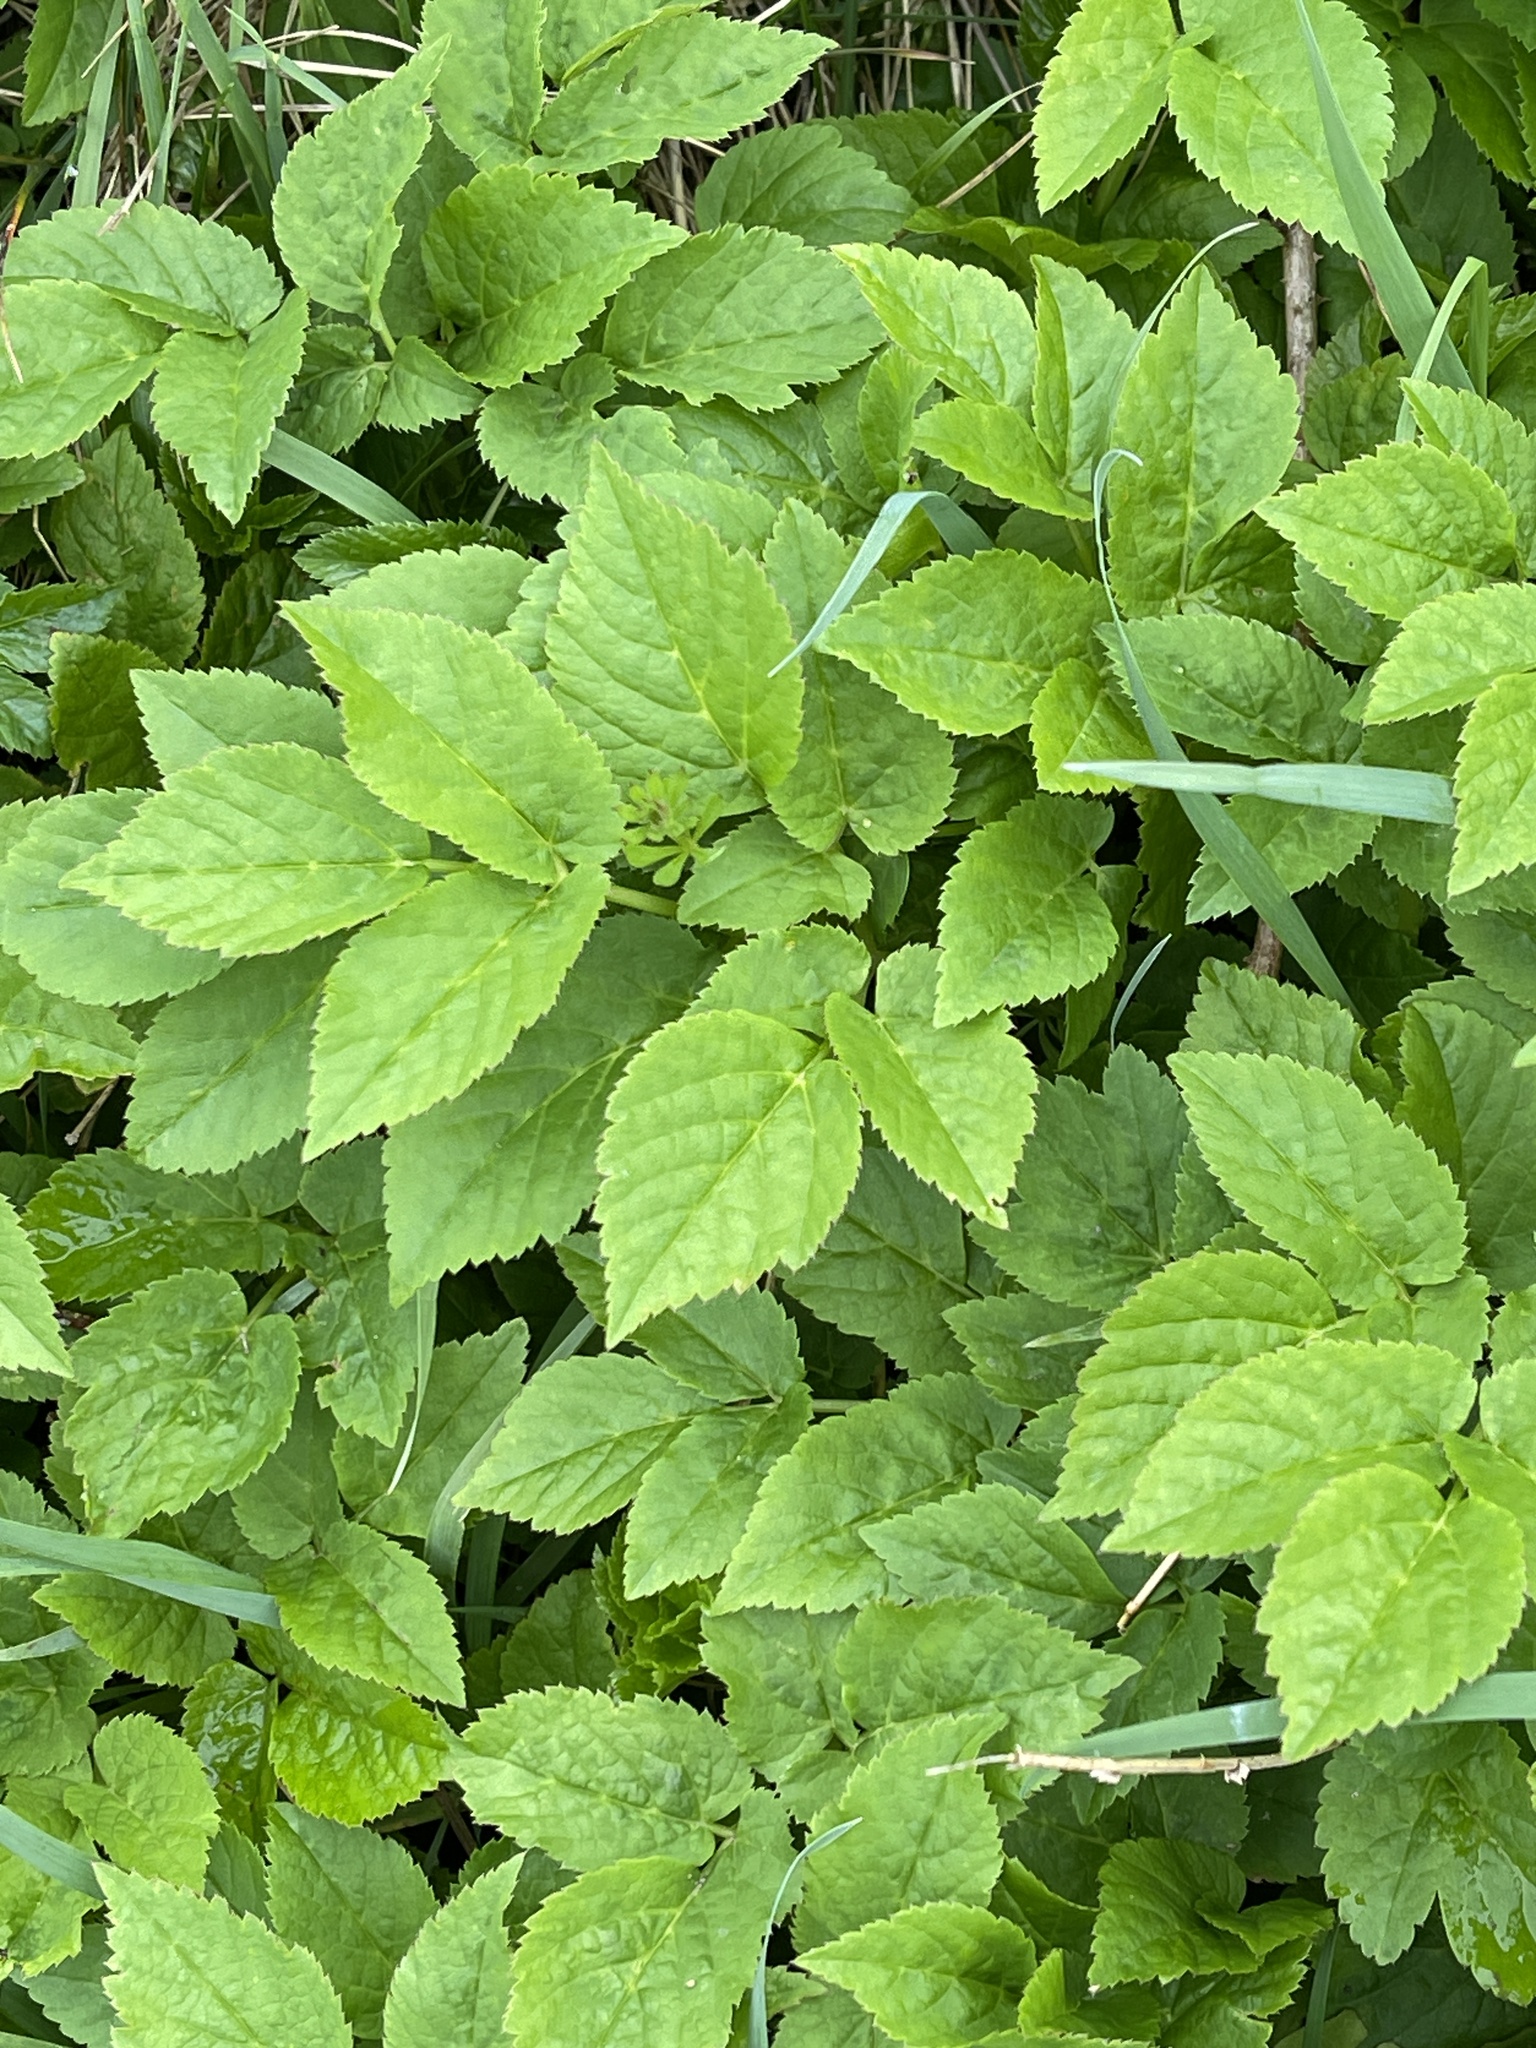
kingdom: Plantae
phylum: Tracheophyta
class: Magnoliopsida
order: Apiales
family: Apiaceae
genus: Aegopodium
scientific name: Aegopodium podagraria
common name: Ground-elder
